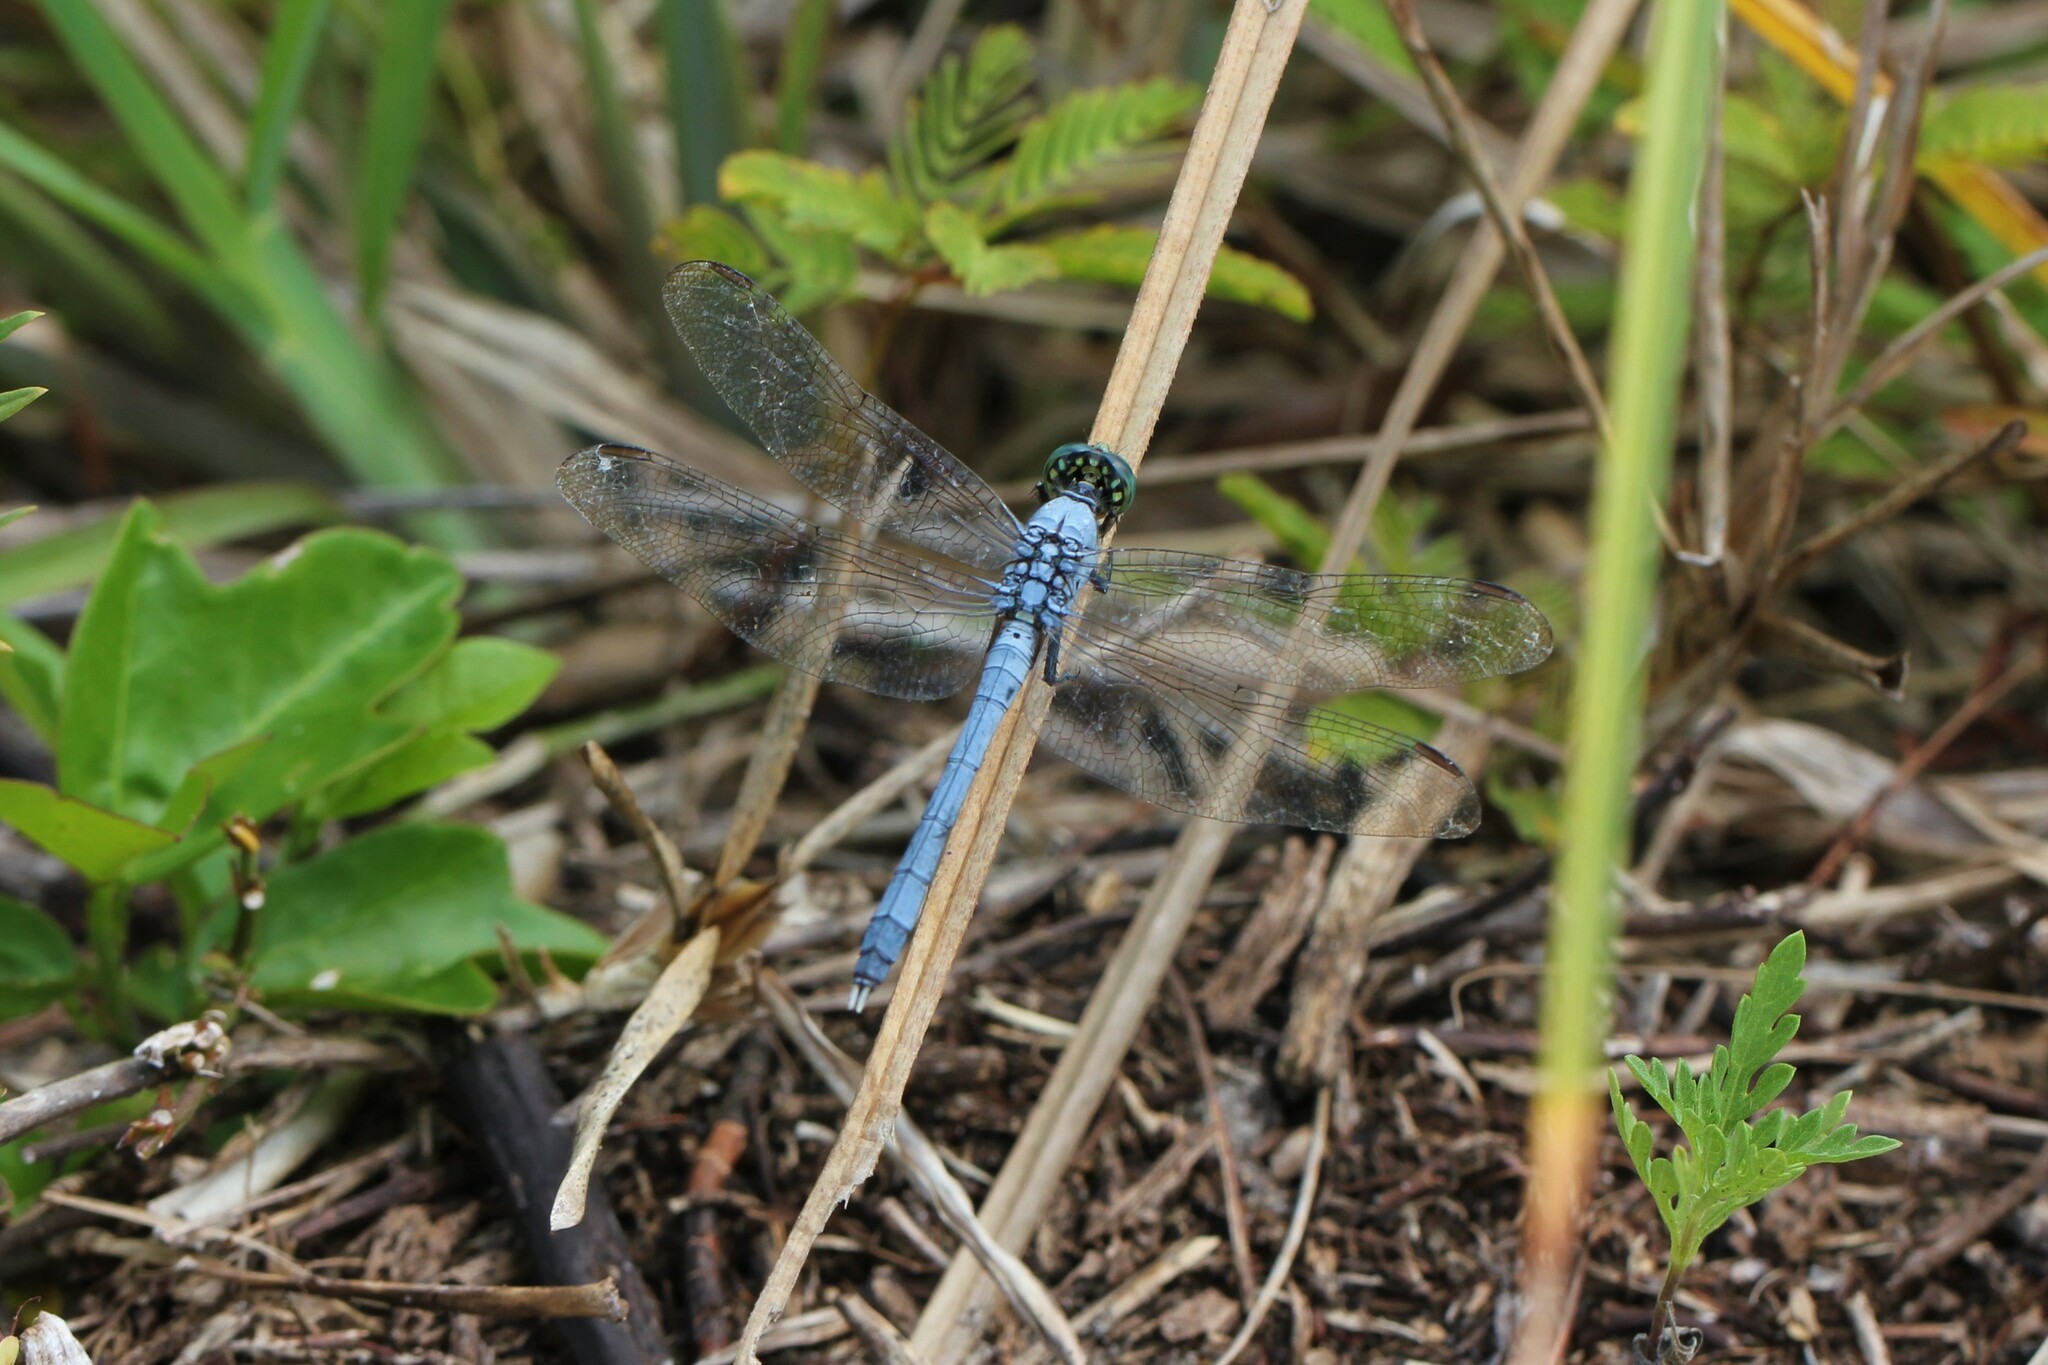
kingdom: Animalia
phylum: Arthropoda
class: Insecta
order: Odonata
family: Libellulidae
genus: Erythemis
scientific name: Erythemis simplicicollis
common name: Eastern pondhawk
